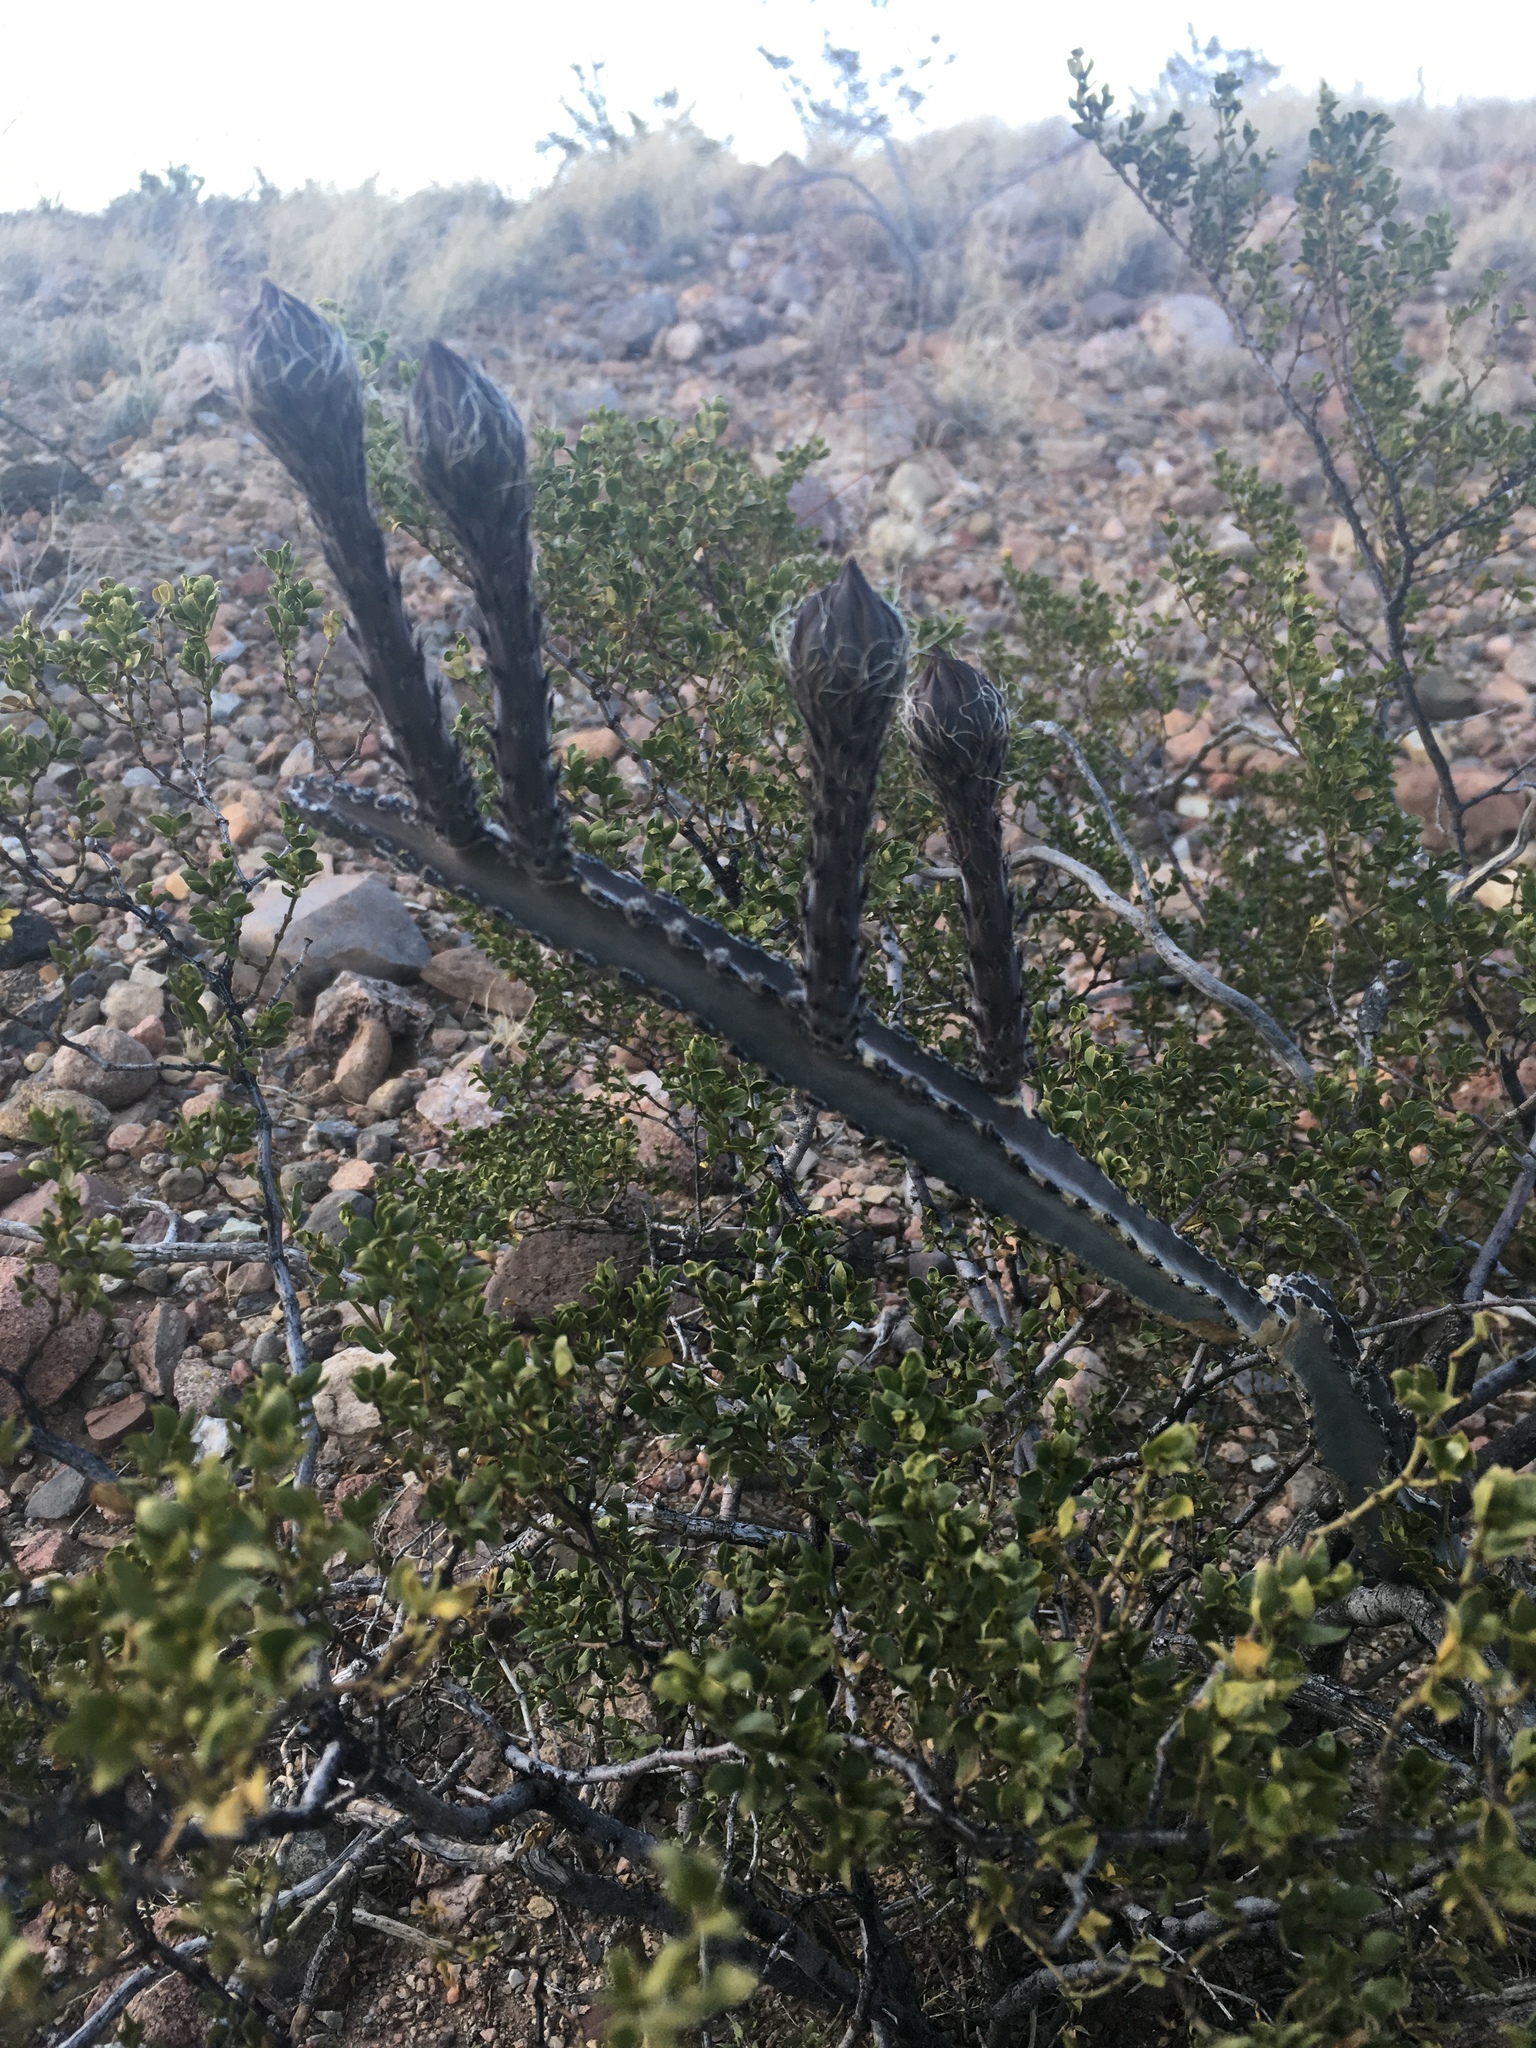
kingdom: Plantae
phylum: Tracheophyta
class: Magnoliopsida
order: Caryophyllales
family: Cactaceae
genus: Peniocereus
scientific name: Peniocereus greggii
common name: Desert night-blooming cereus
